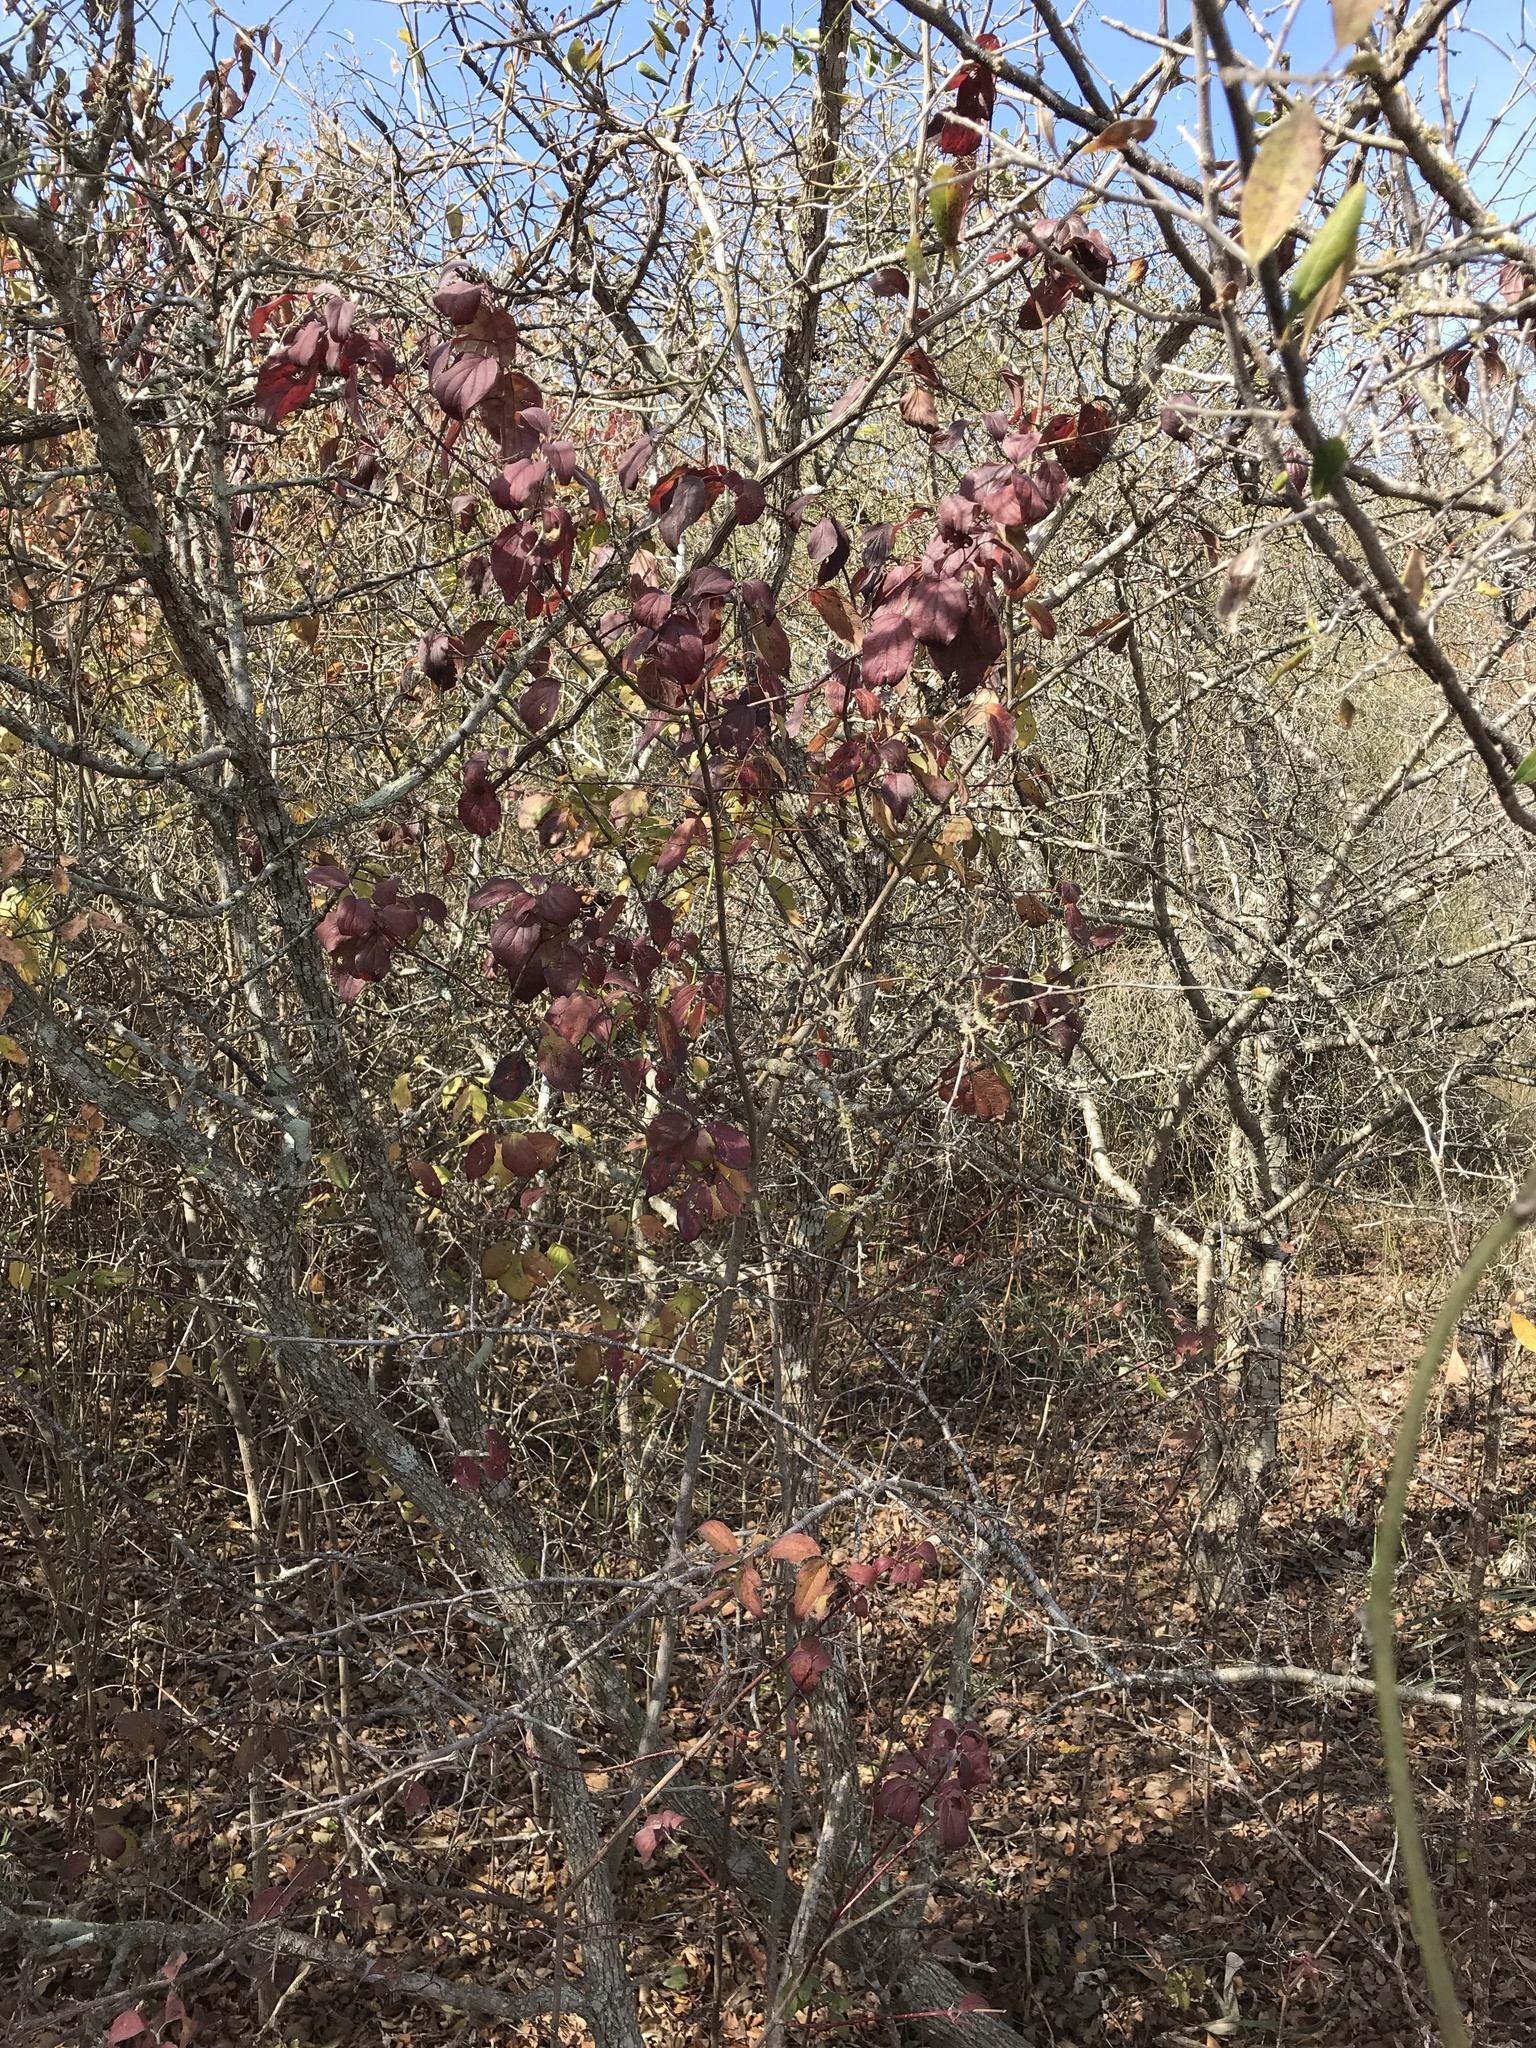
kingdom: Plantae
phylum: Tracheophyta
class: Magnoliopsida
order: Cornales
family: Cornaceae
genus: Cornus
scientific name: Cornus drummondii
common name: Rough-leaf dogwood
